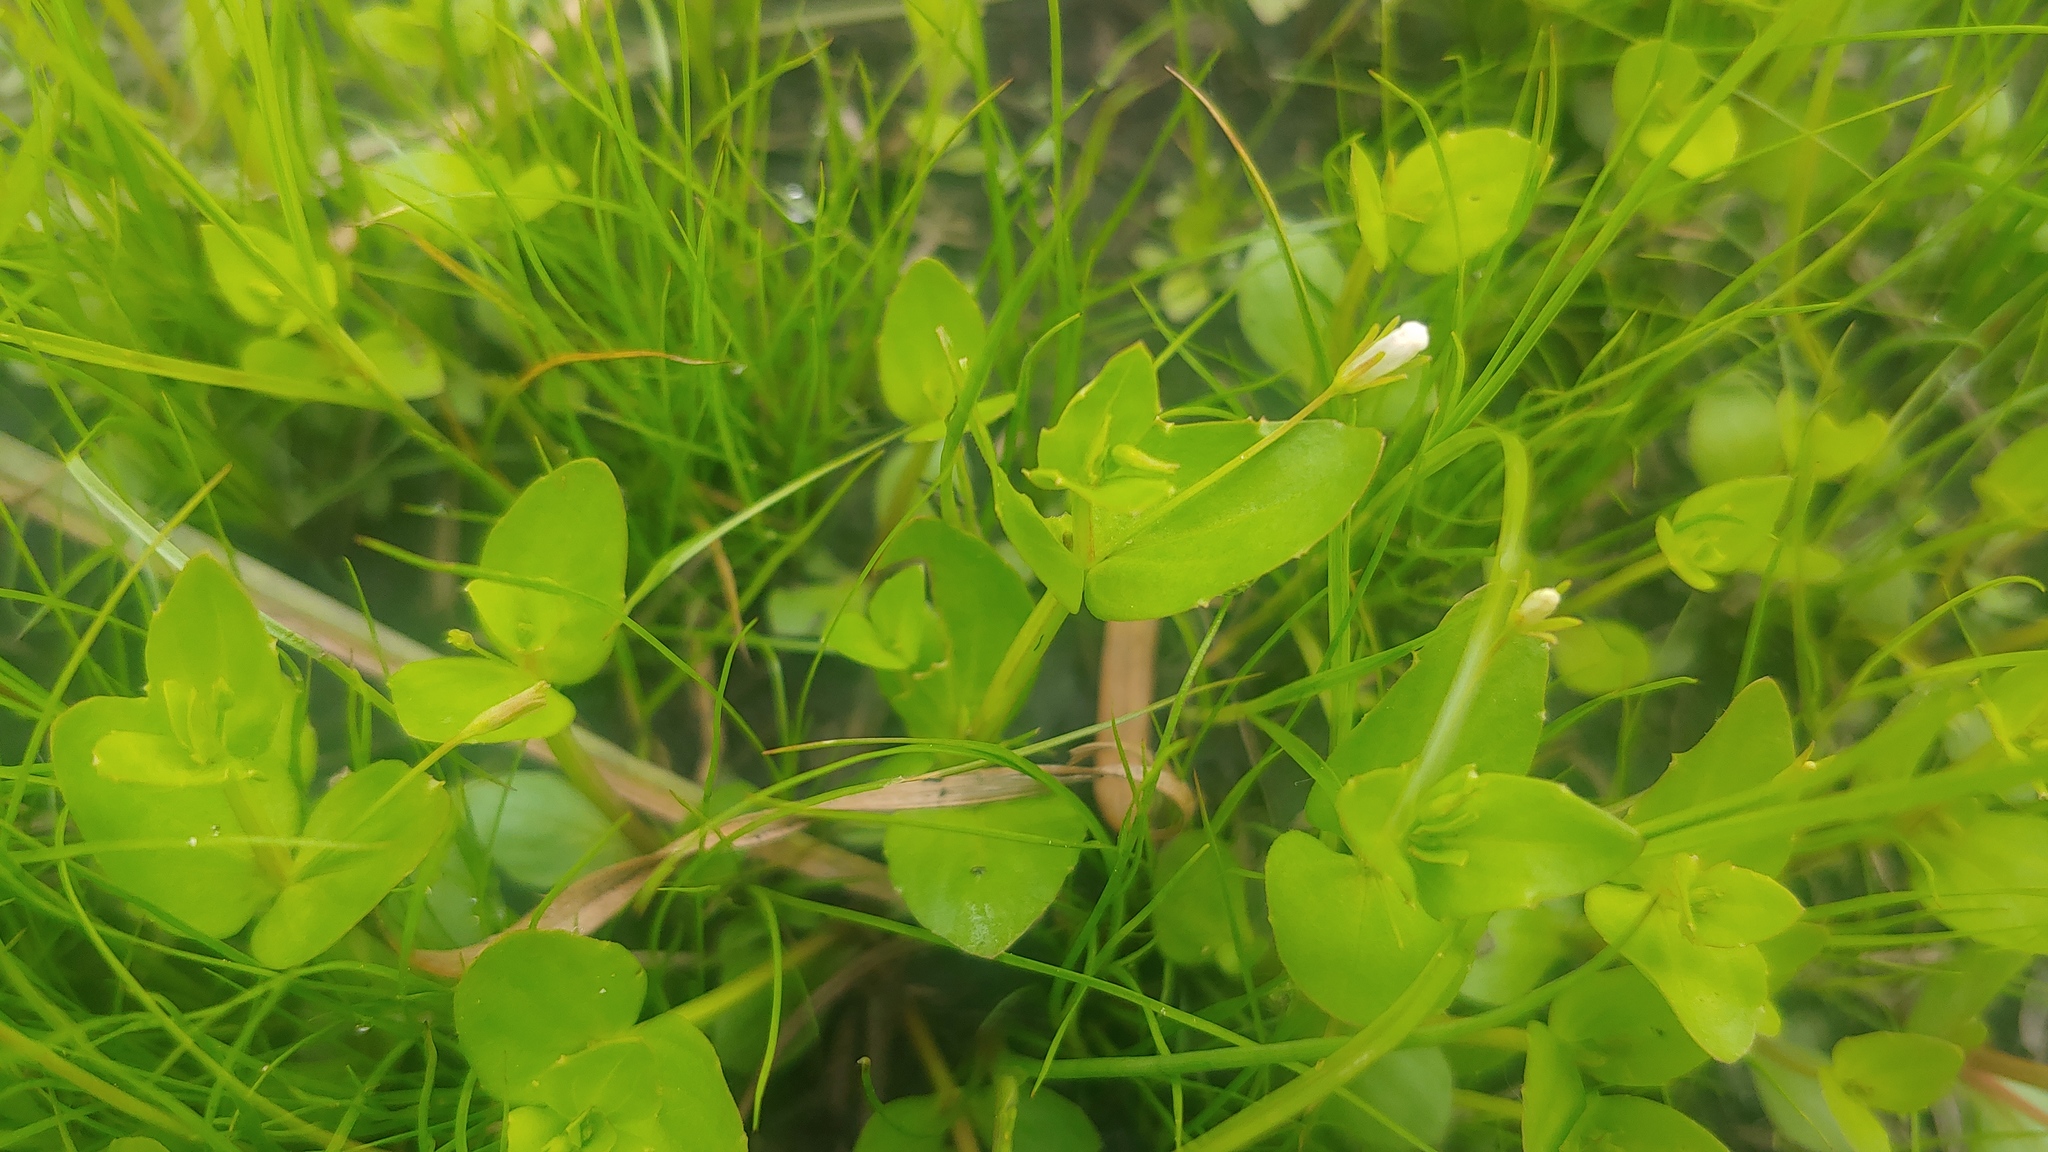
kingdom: Plantae
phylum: Tracheophyta
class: Magnoliopsida
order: Lamiales
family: Linderniaceae
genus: Lindernia
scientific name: Lindernia dubia
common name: Annual false pimpernel
